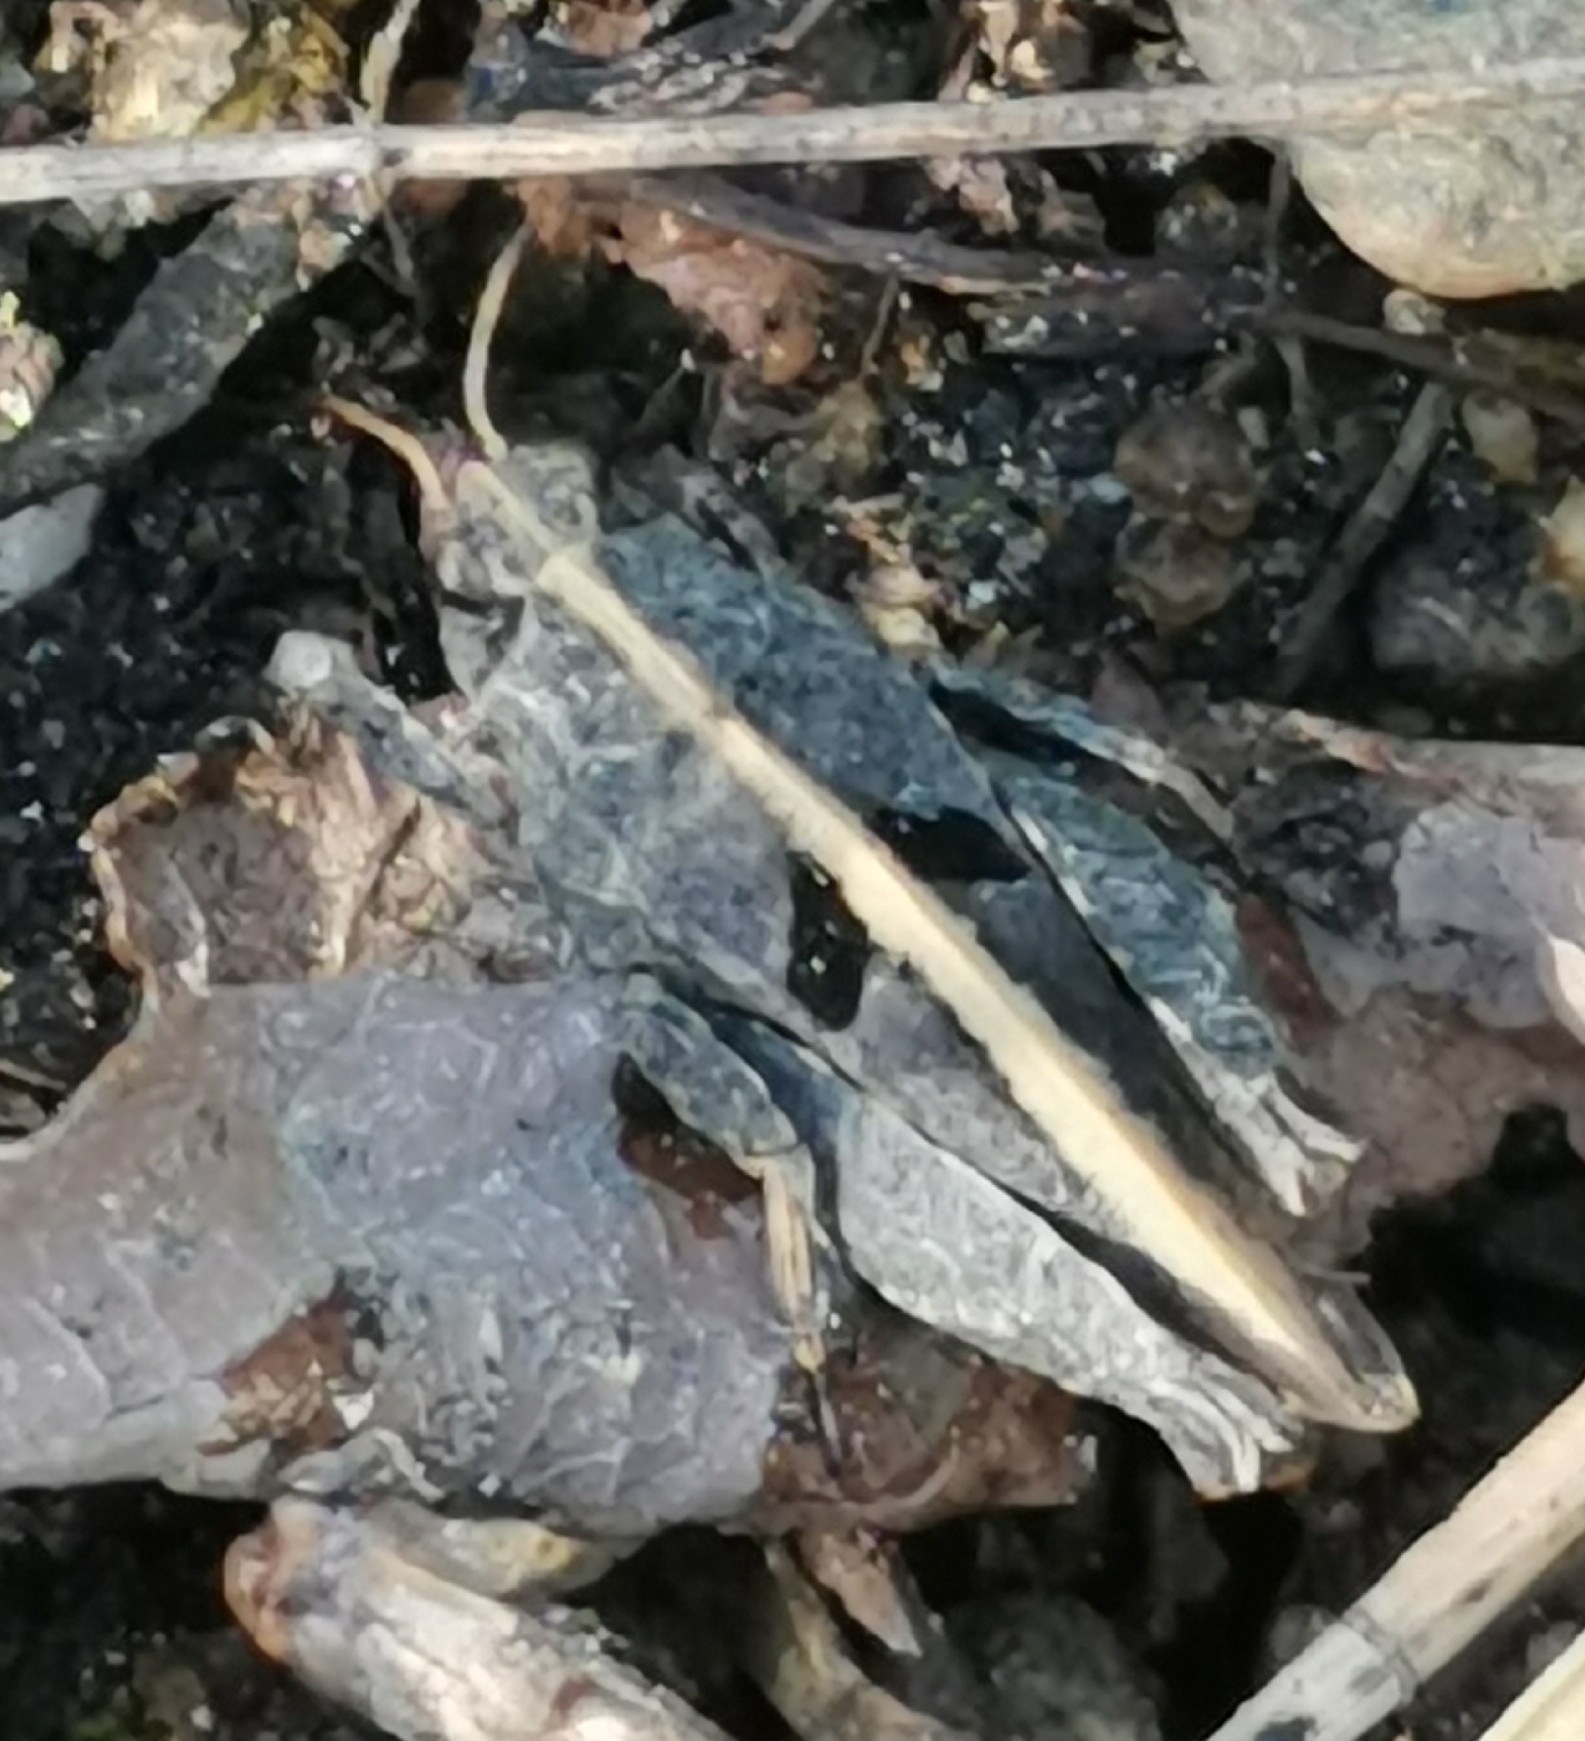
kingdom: Animalia
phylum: Arthropoda
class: Insecta
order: Orthoptera
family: Tetrigidae
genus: Tetrix
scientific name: Tetrix bipunctata
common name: Two-spotted groundhopper
